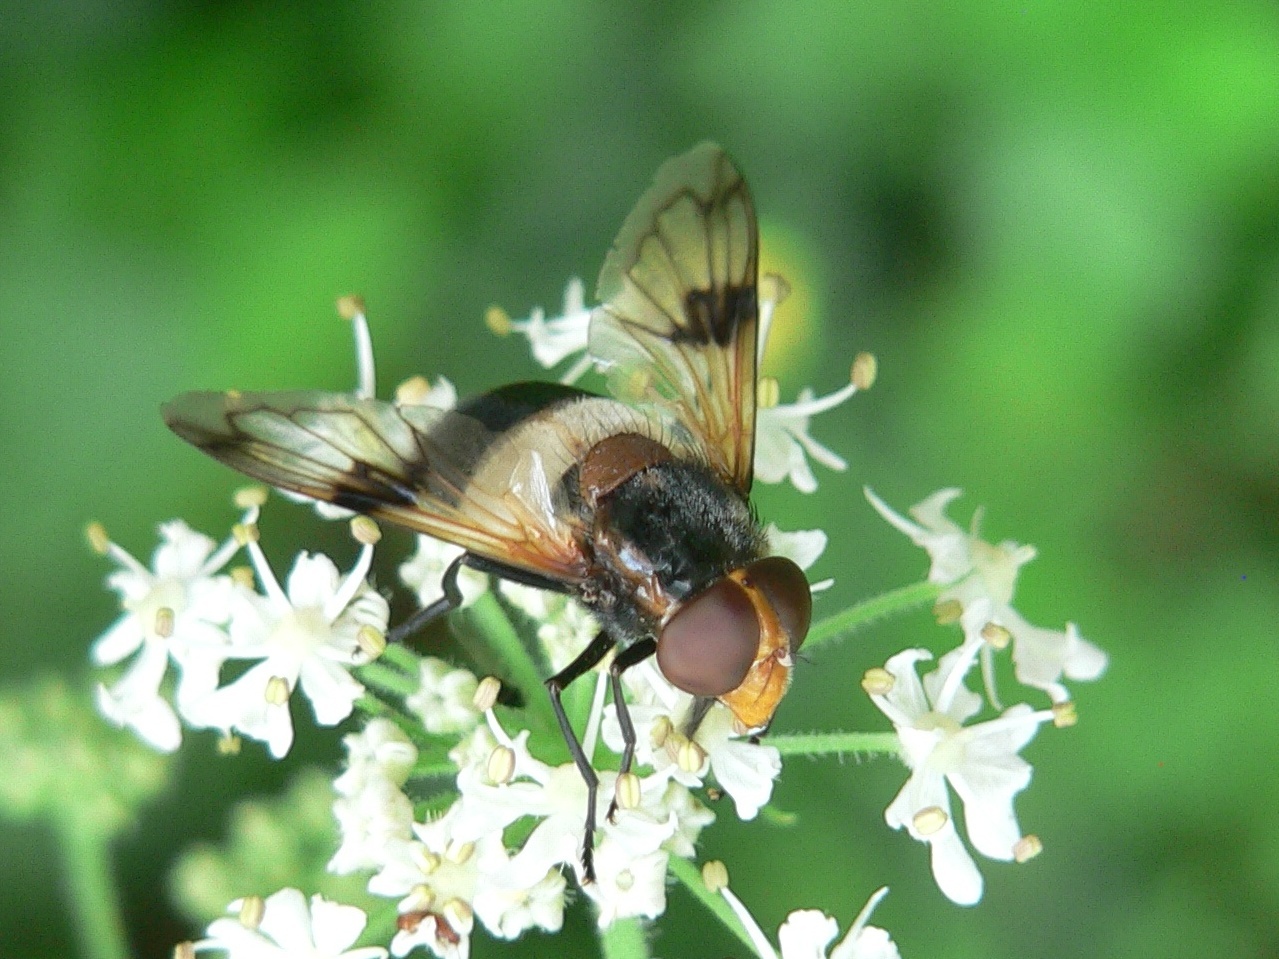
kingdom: Animalia
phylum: Arthropoda
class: Insecta
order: Diptera
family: Syrphidae
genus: Volucella
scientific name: Volucella pellucens
